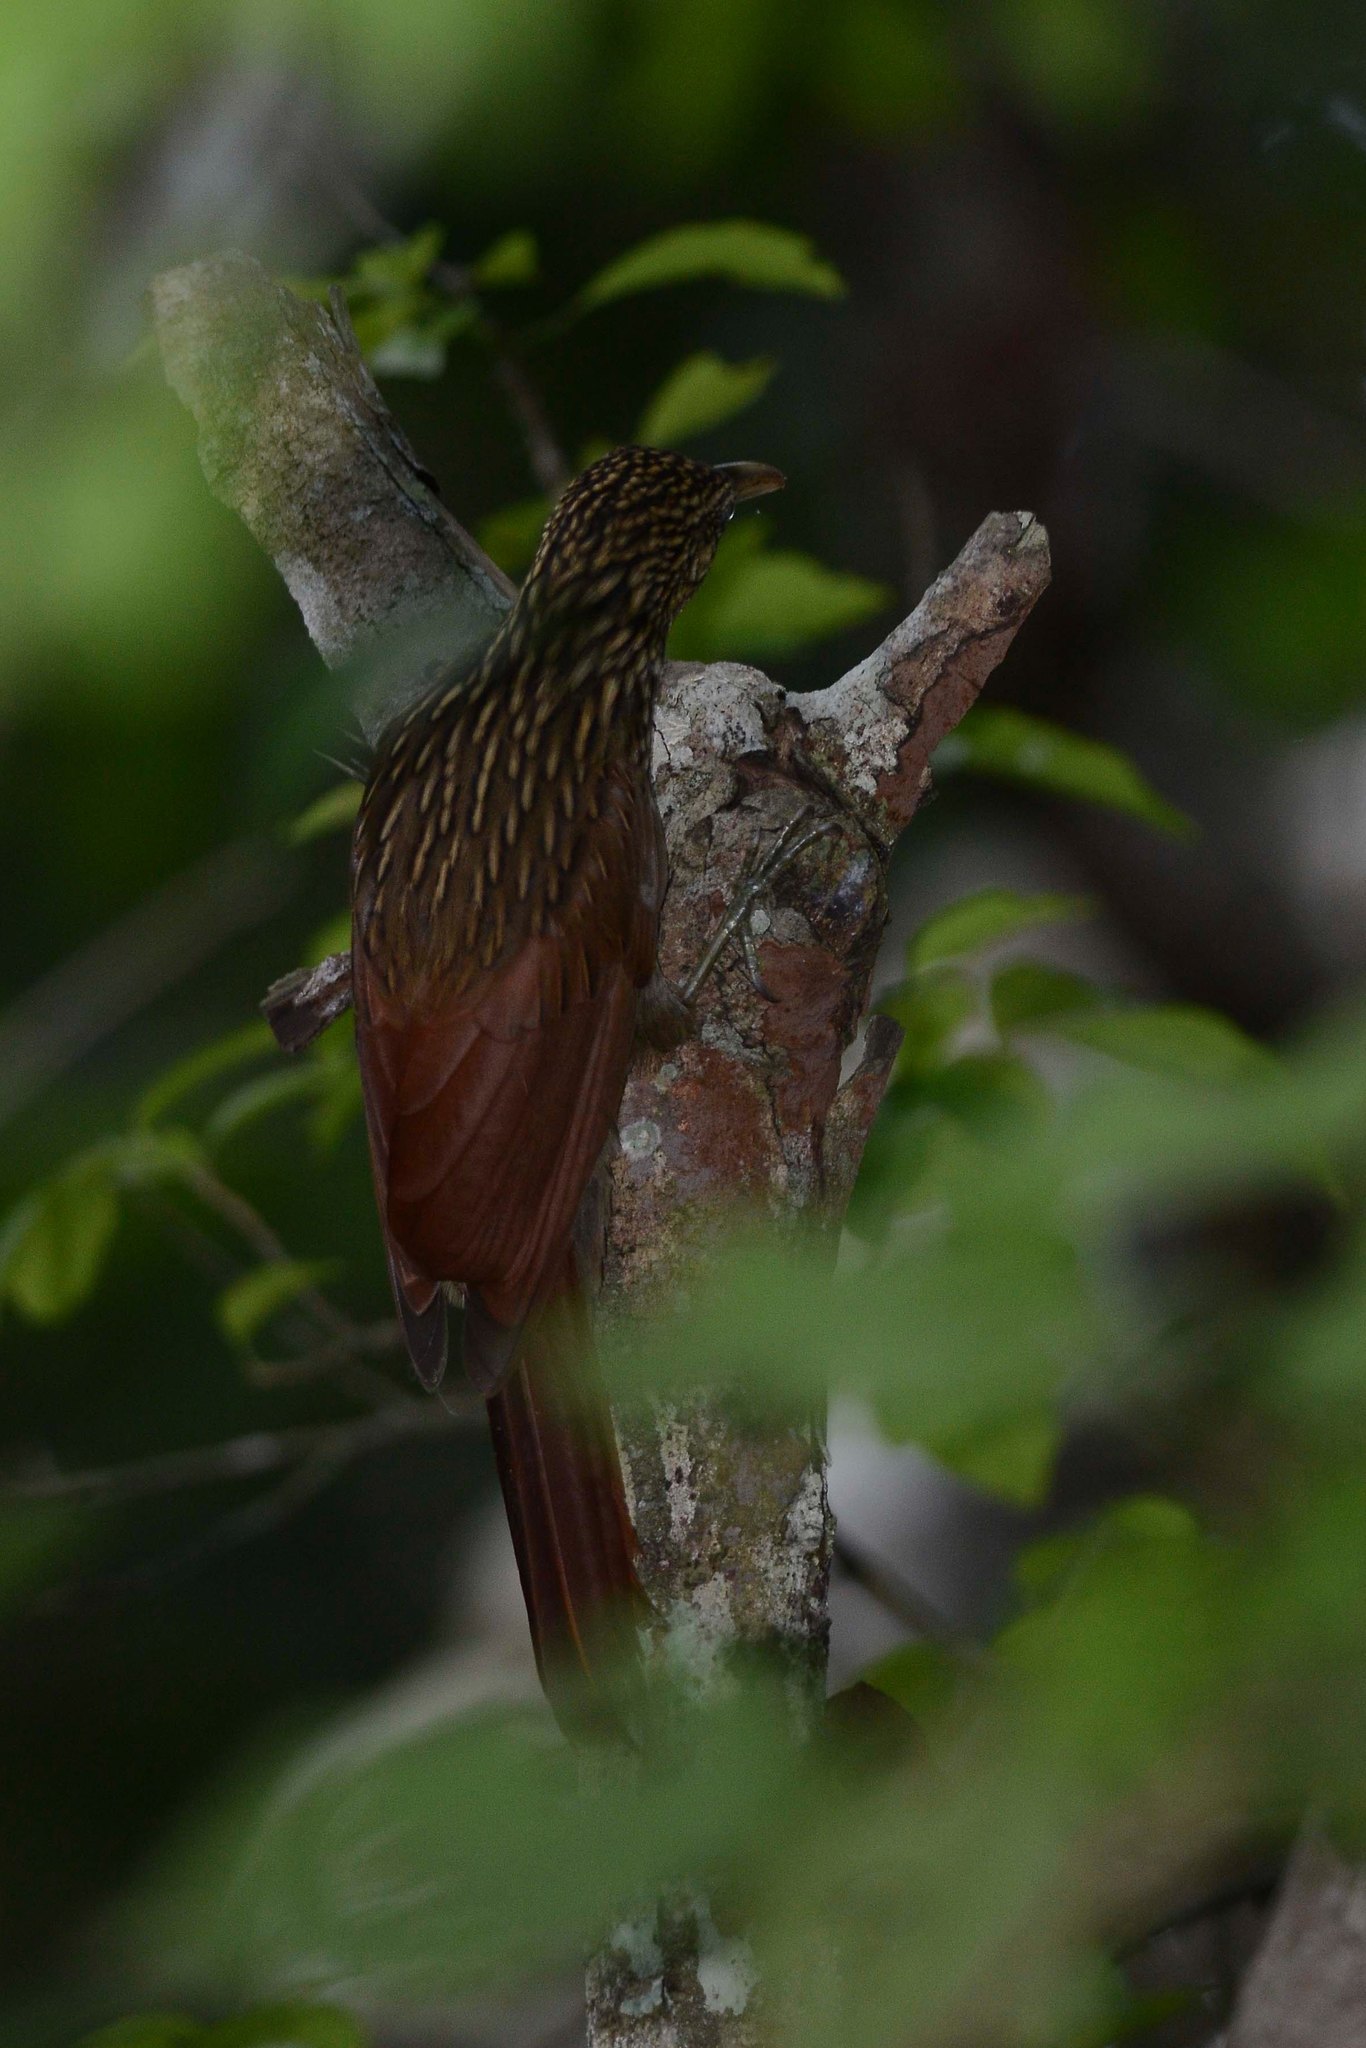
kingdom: Animalia
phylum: Chordata
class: Aves
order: Passeriformes
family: Furnariidae
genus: Xiphorhynchus
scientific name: Xiphorhynchus flavigaster
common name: Ivory-billed woodcreeper
